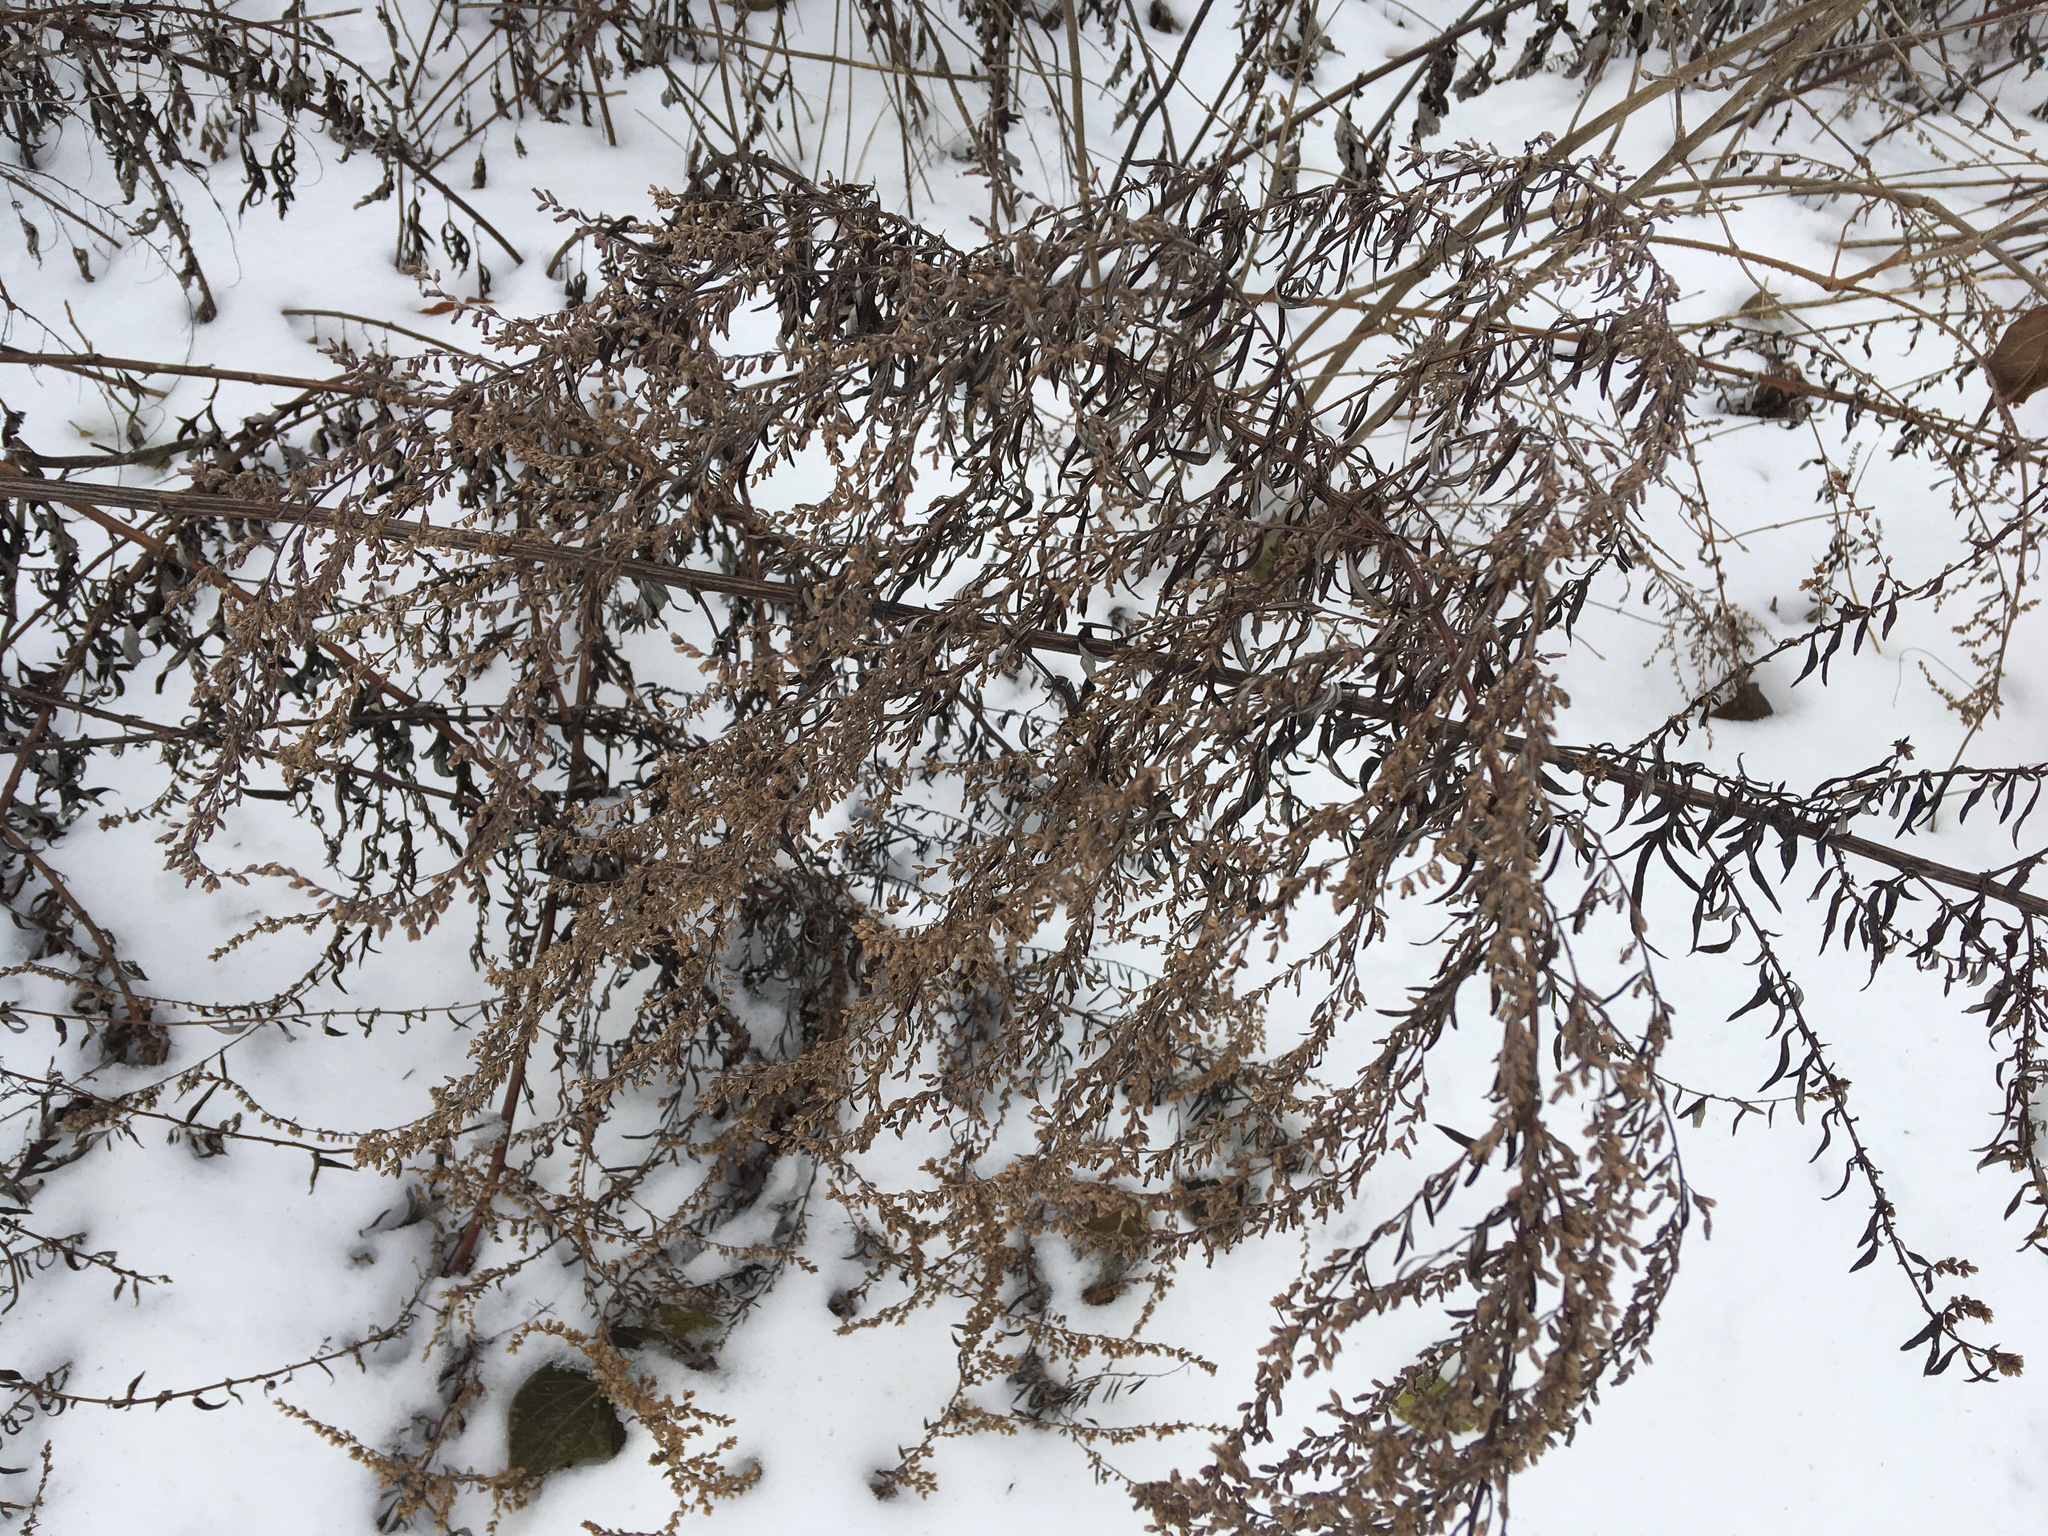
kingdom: Plantae
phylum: Tracheophyta
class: Magnoliopsida
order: Asterales
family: Asteraceae
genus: Artemisia
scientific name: Artemisia vulgaris
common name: Mugwort
